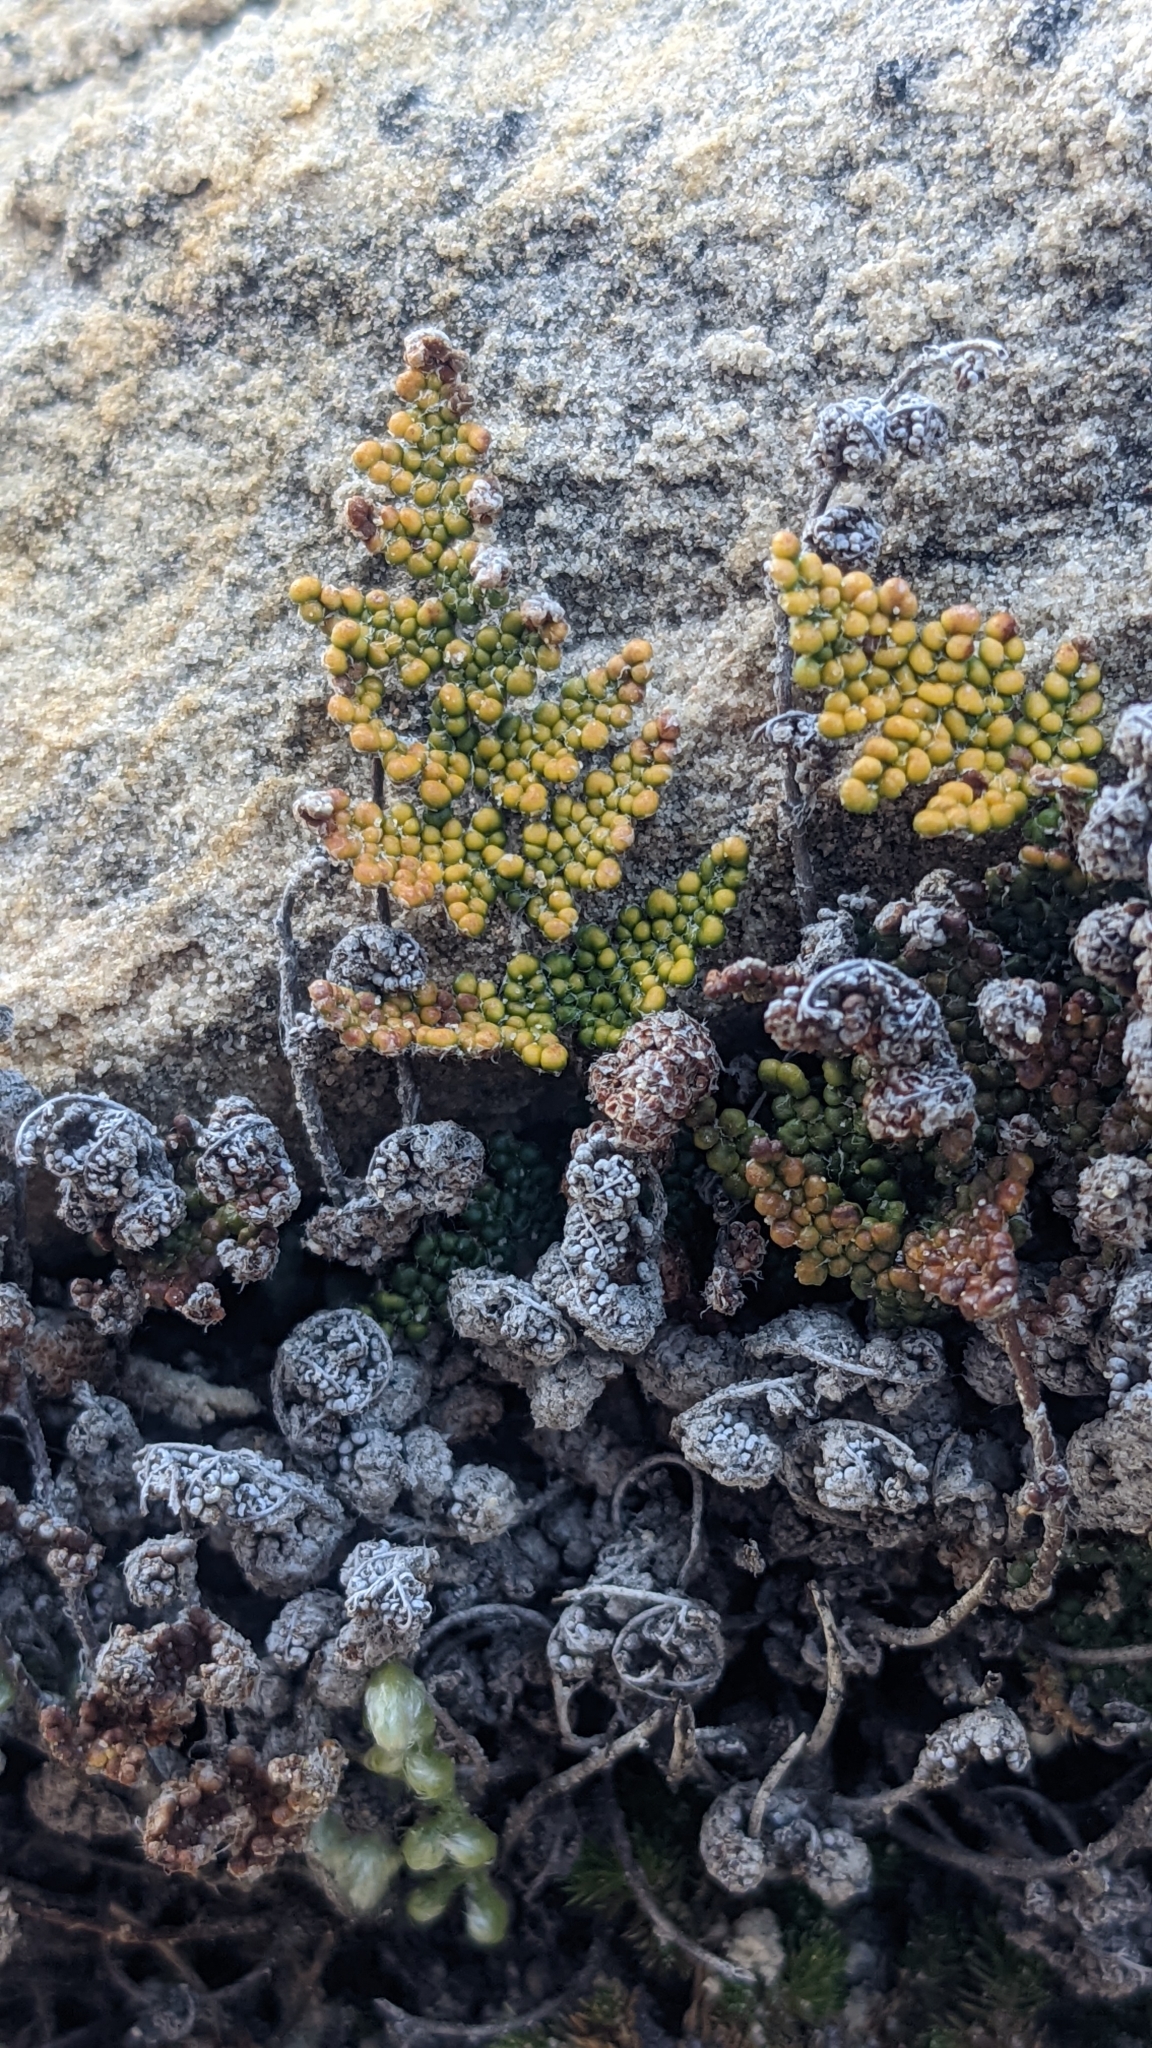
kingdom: Plantae
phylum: Tracheophyta
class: Polypodiopsida
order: Polypodiales
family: Pteridaceae
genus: Myriopteris
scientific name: Myriopteris covillei
